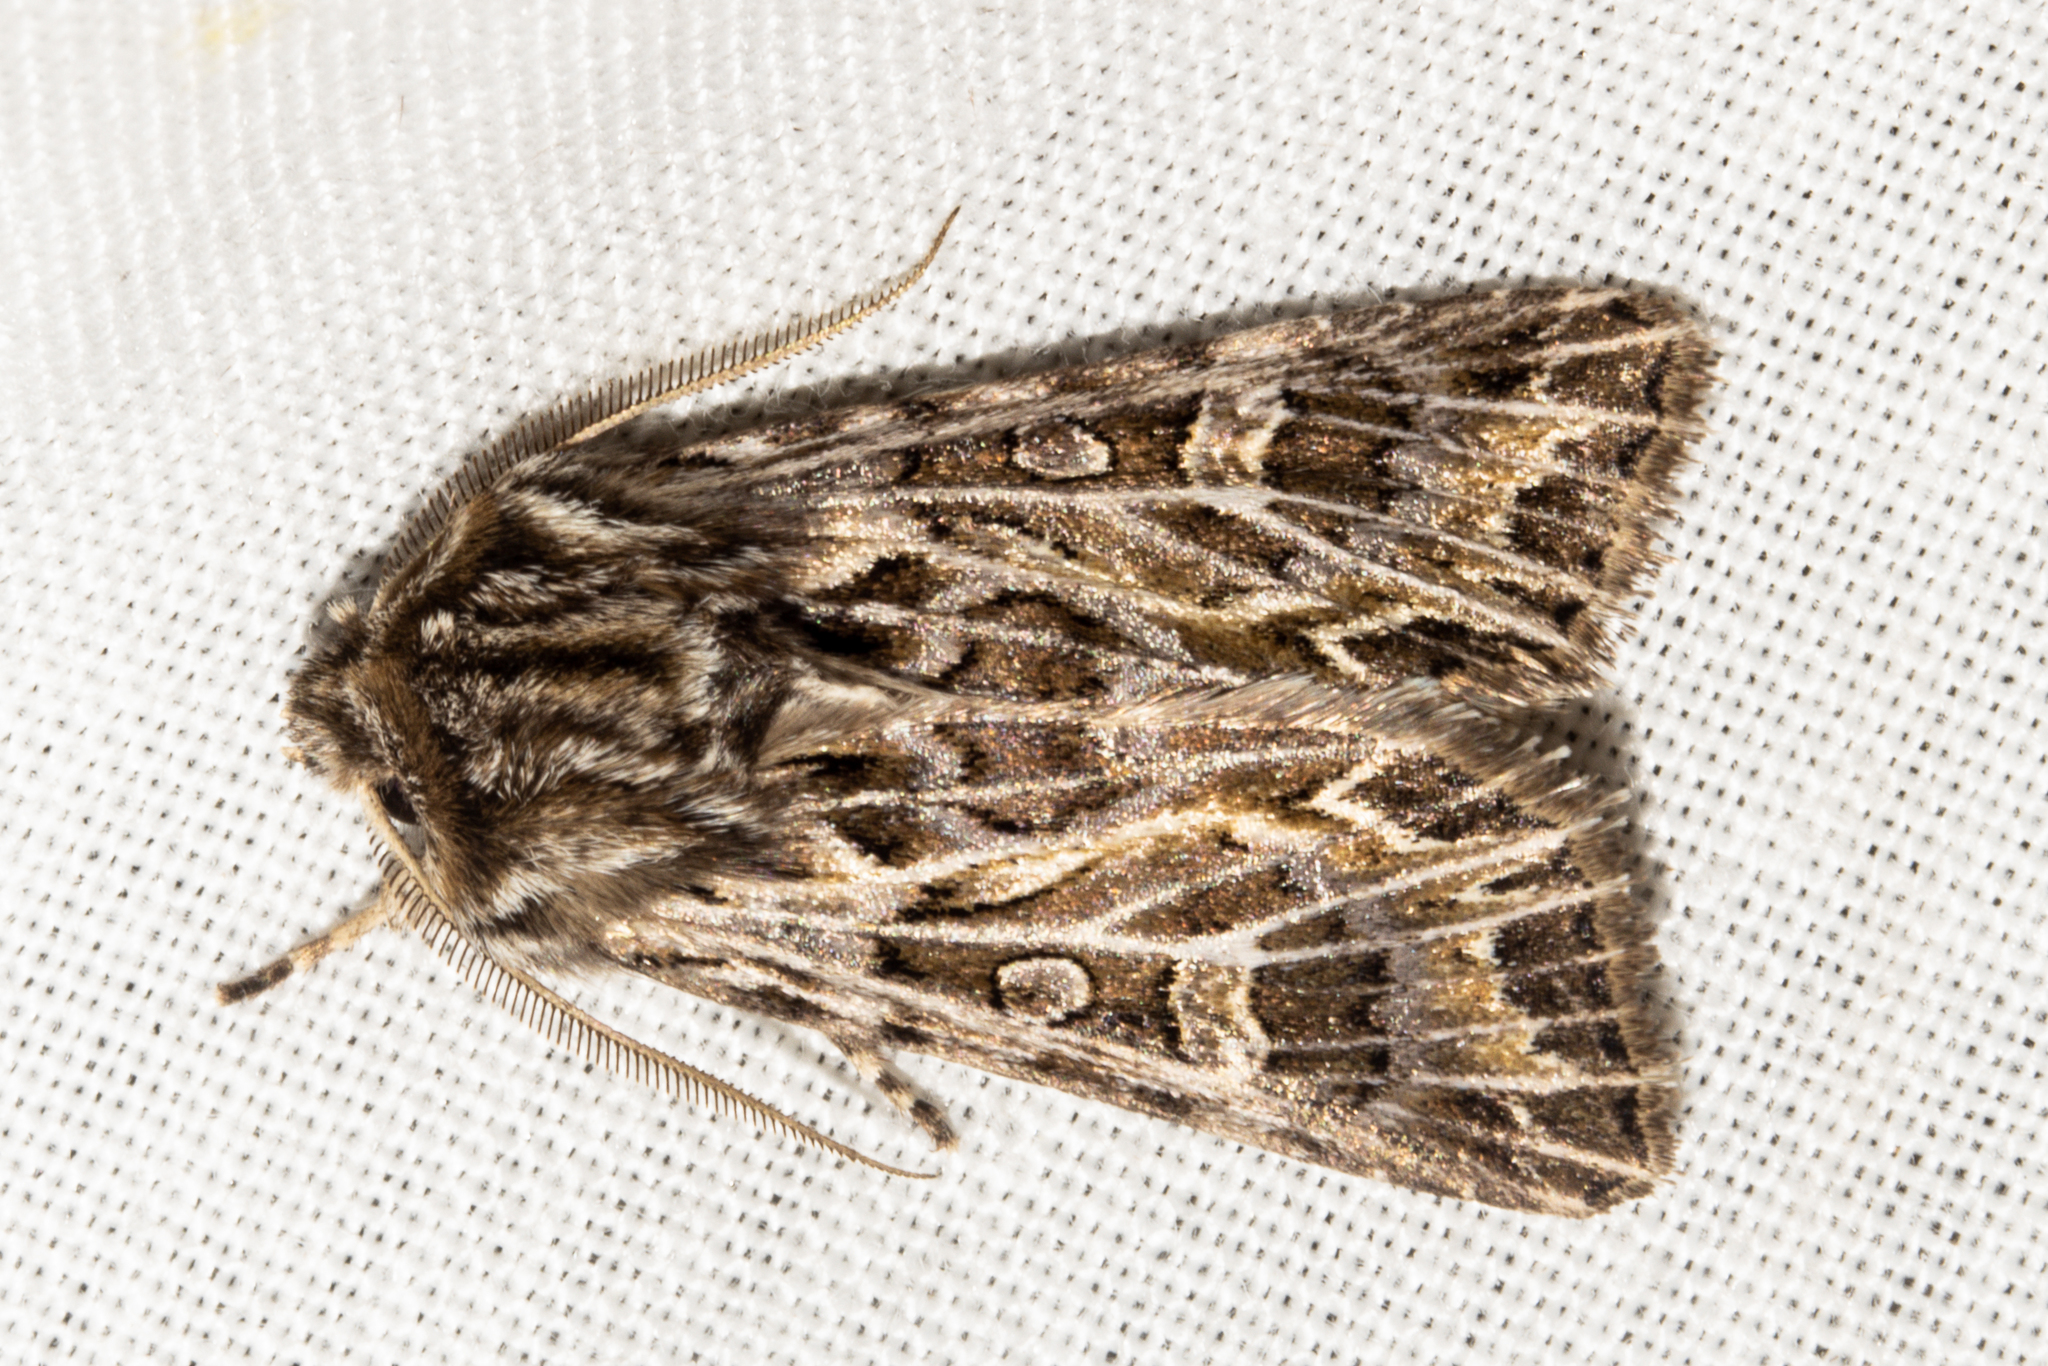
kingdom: Animalia
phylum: Arthropoda
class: Insecta
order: Lepidoptera
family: Noctuidae
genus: Ichneutica
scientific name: Ichneutica
